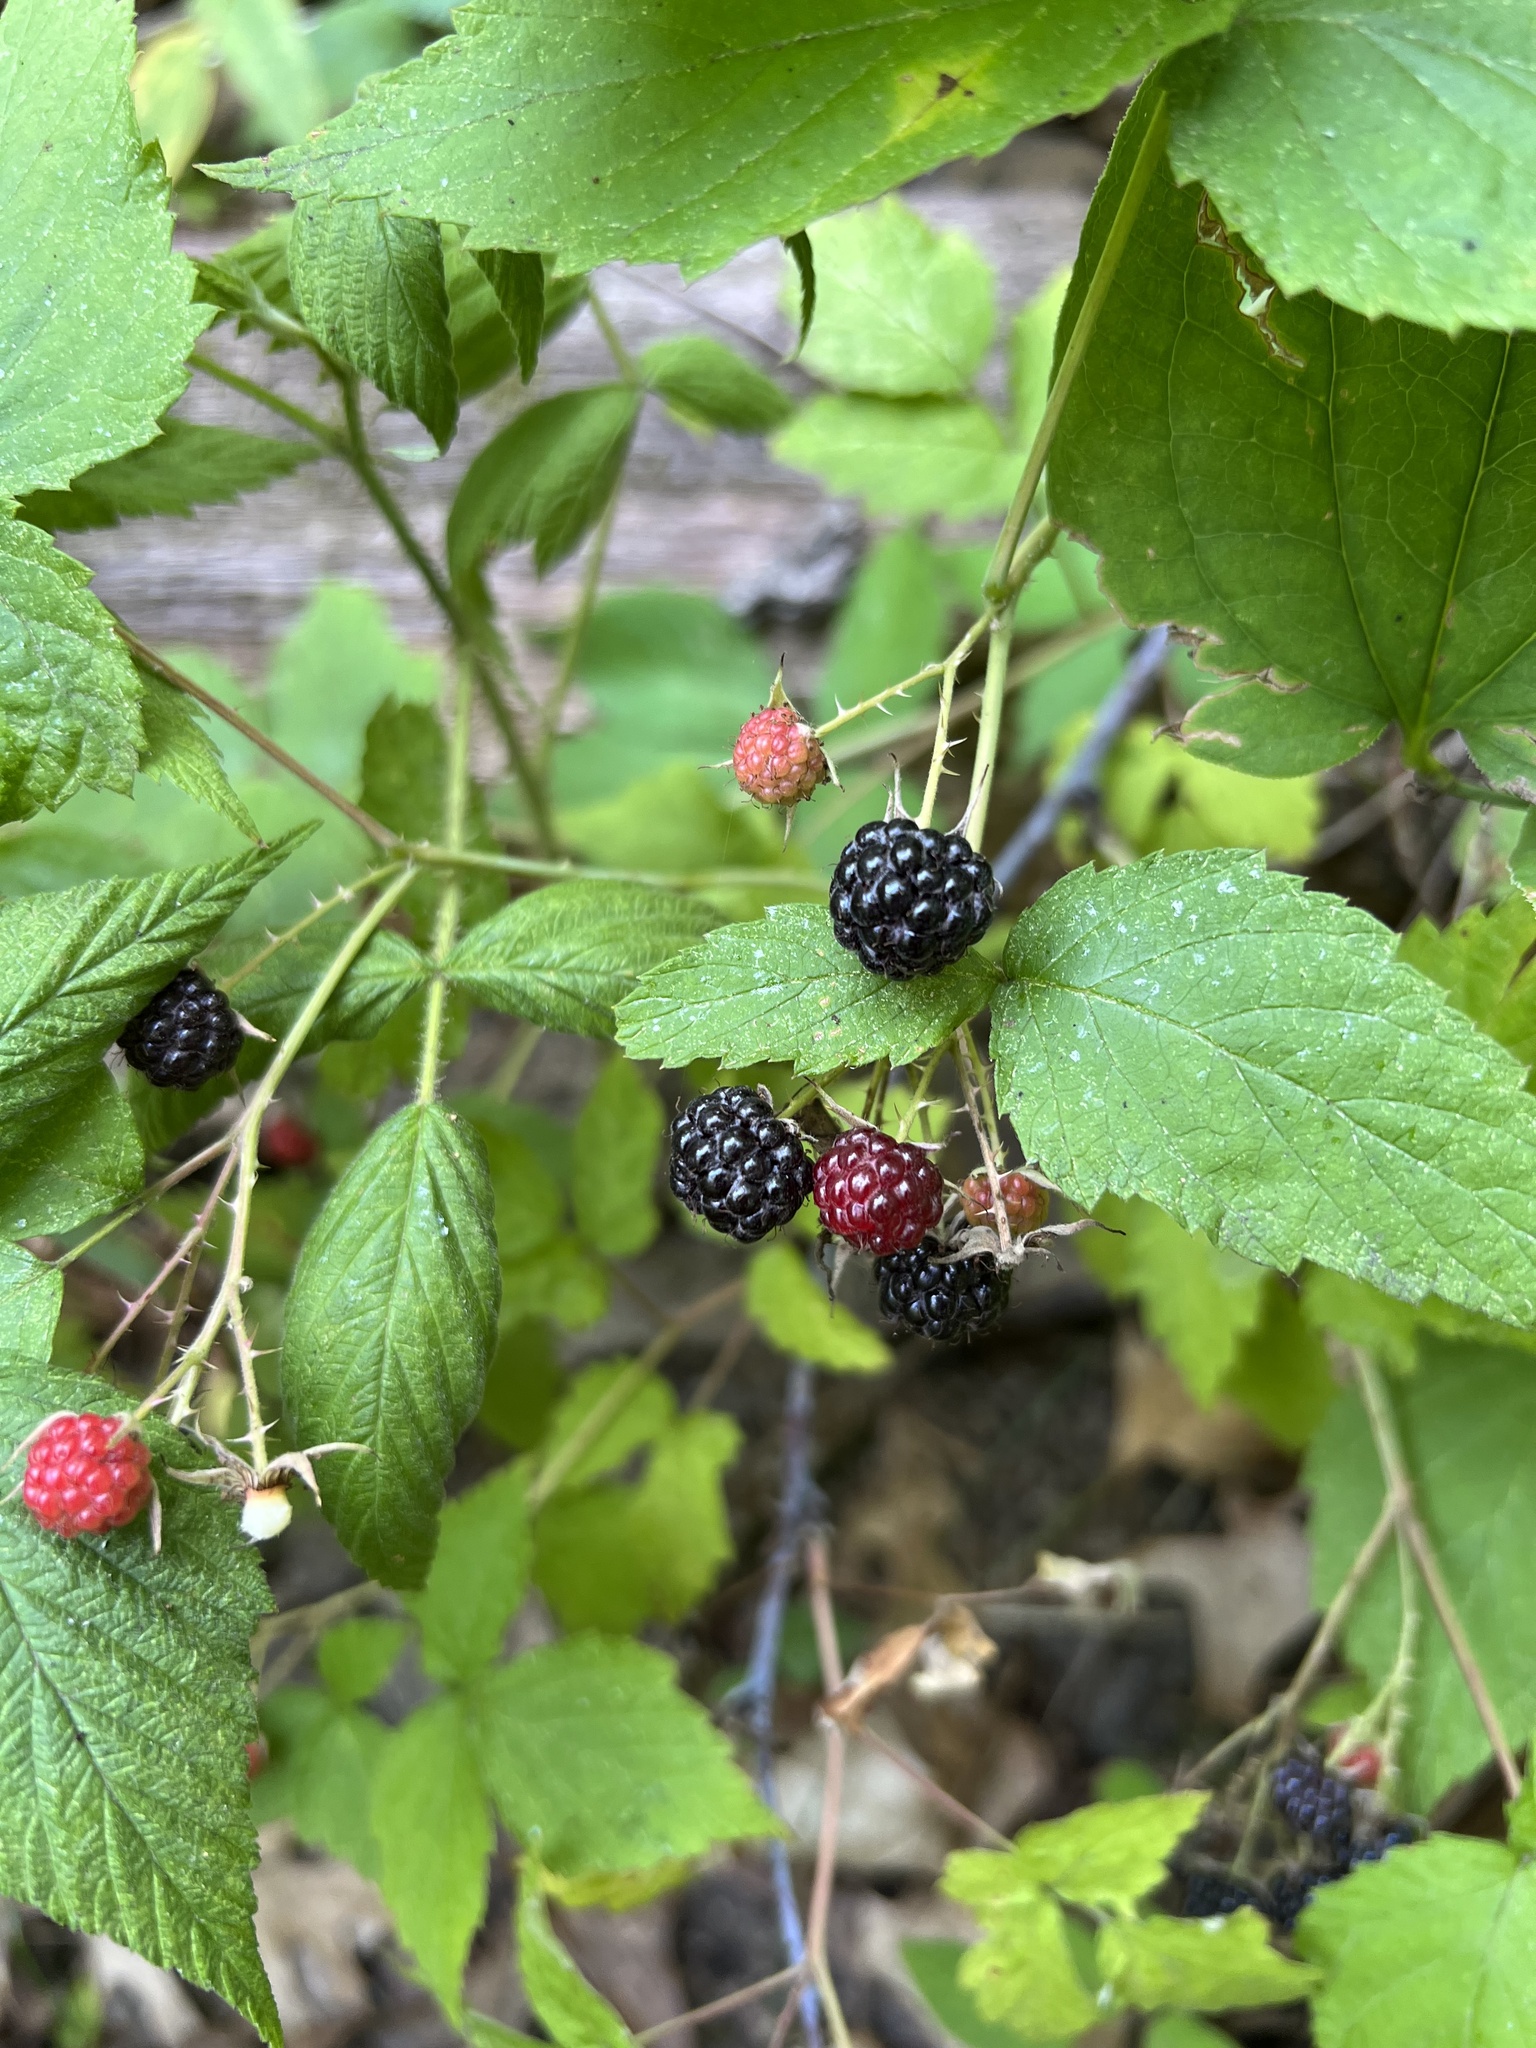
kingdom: Plantae
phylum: Tracheophyta
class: Magnoliopsida
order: Rosales
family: Rosaceae
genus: Rubus
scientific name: Rubus occidentalis
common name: Black raspberry
